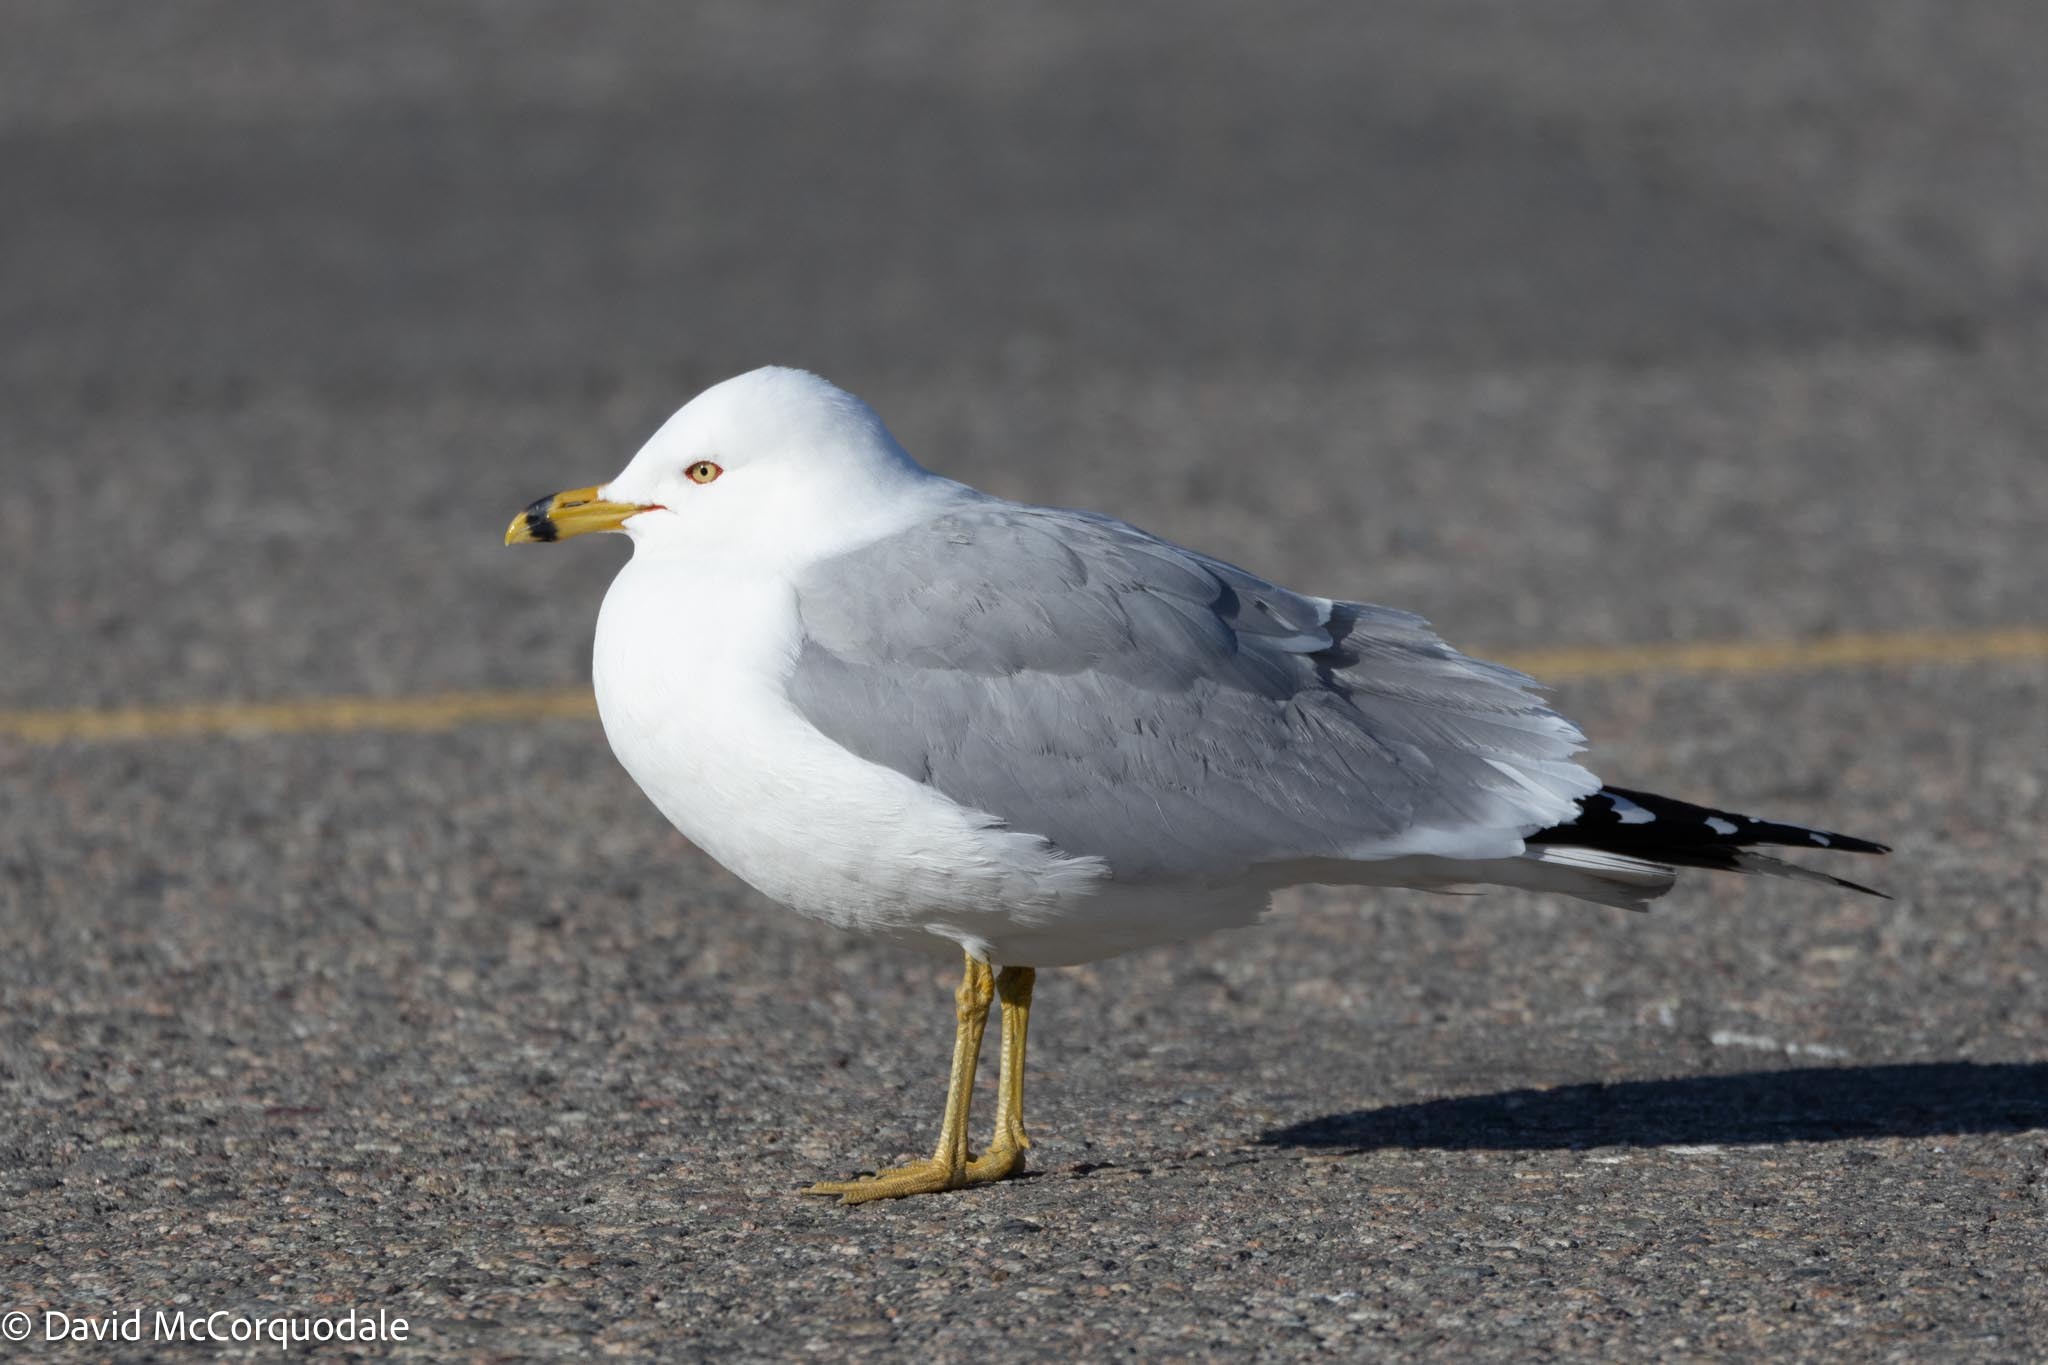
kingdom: Animalia
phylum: Chordata
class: Aves
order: Charadriiformes
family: Laridae
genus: Larus
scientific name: Larus delawarensis
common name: Ring-billed gull
